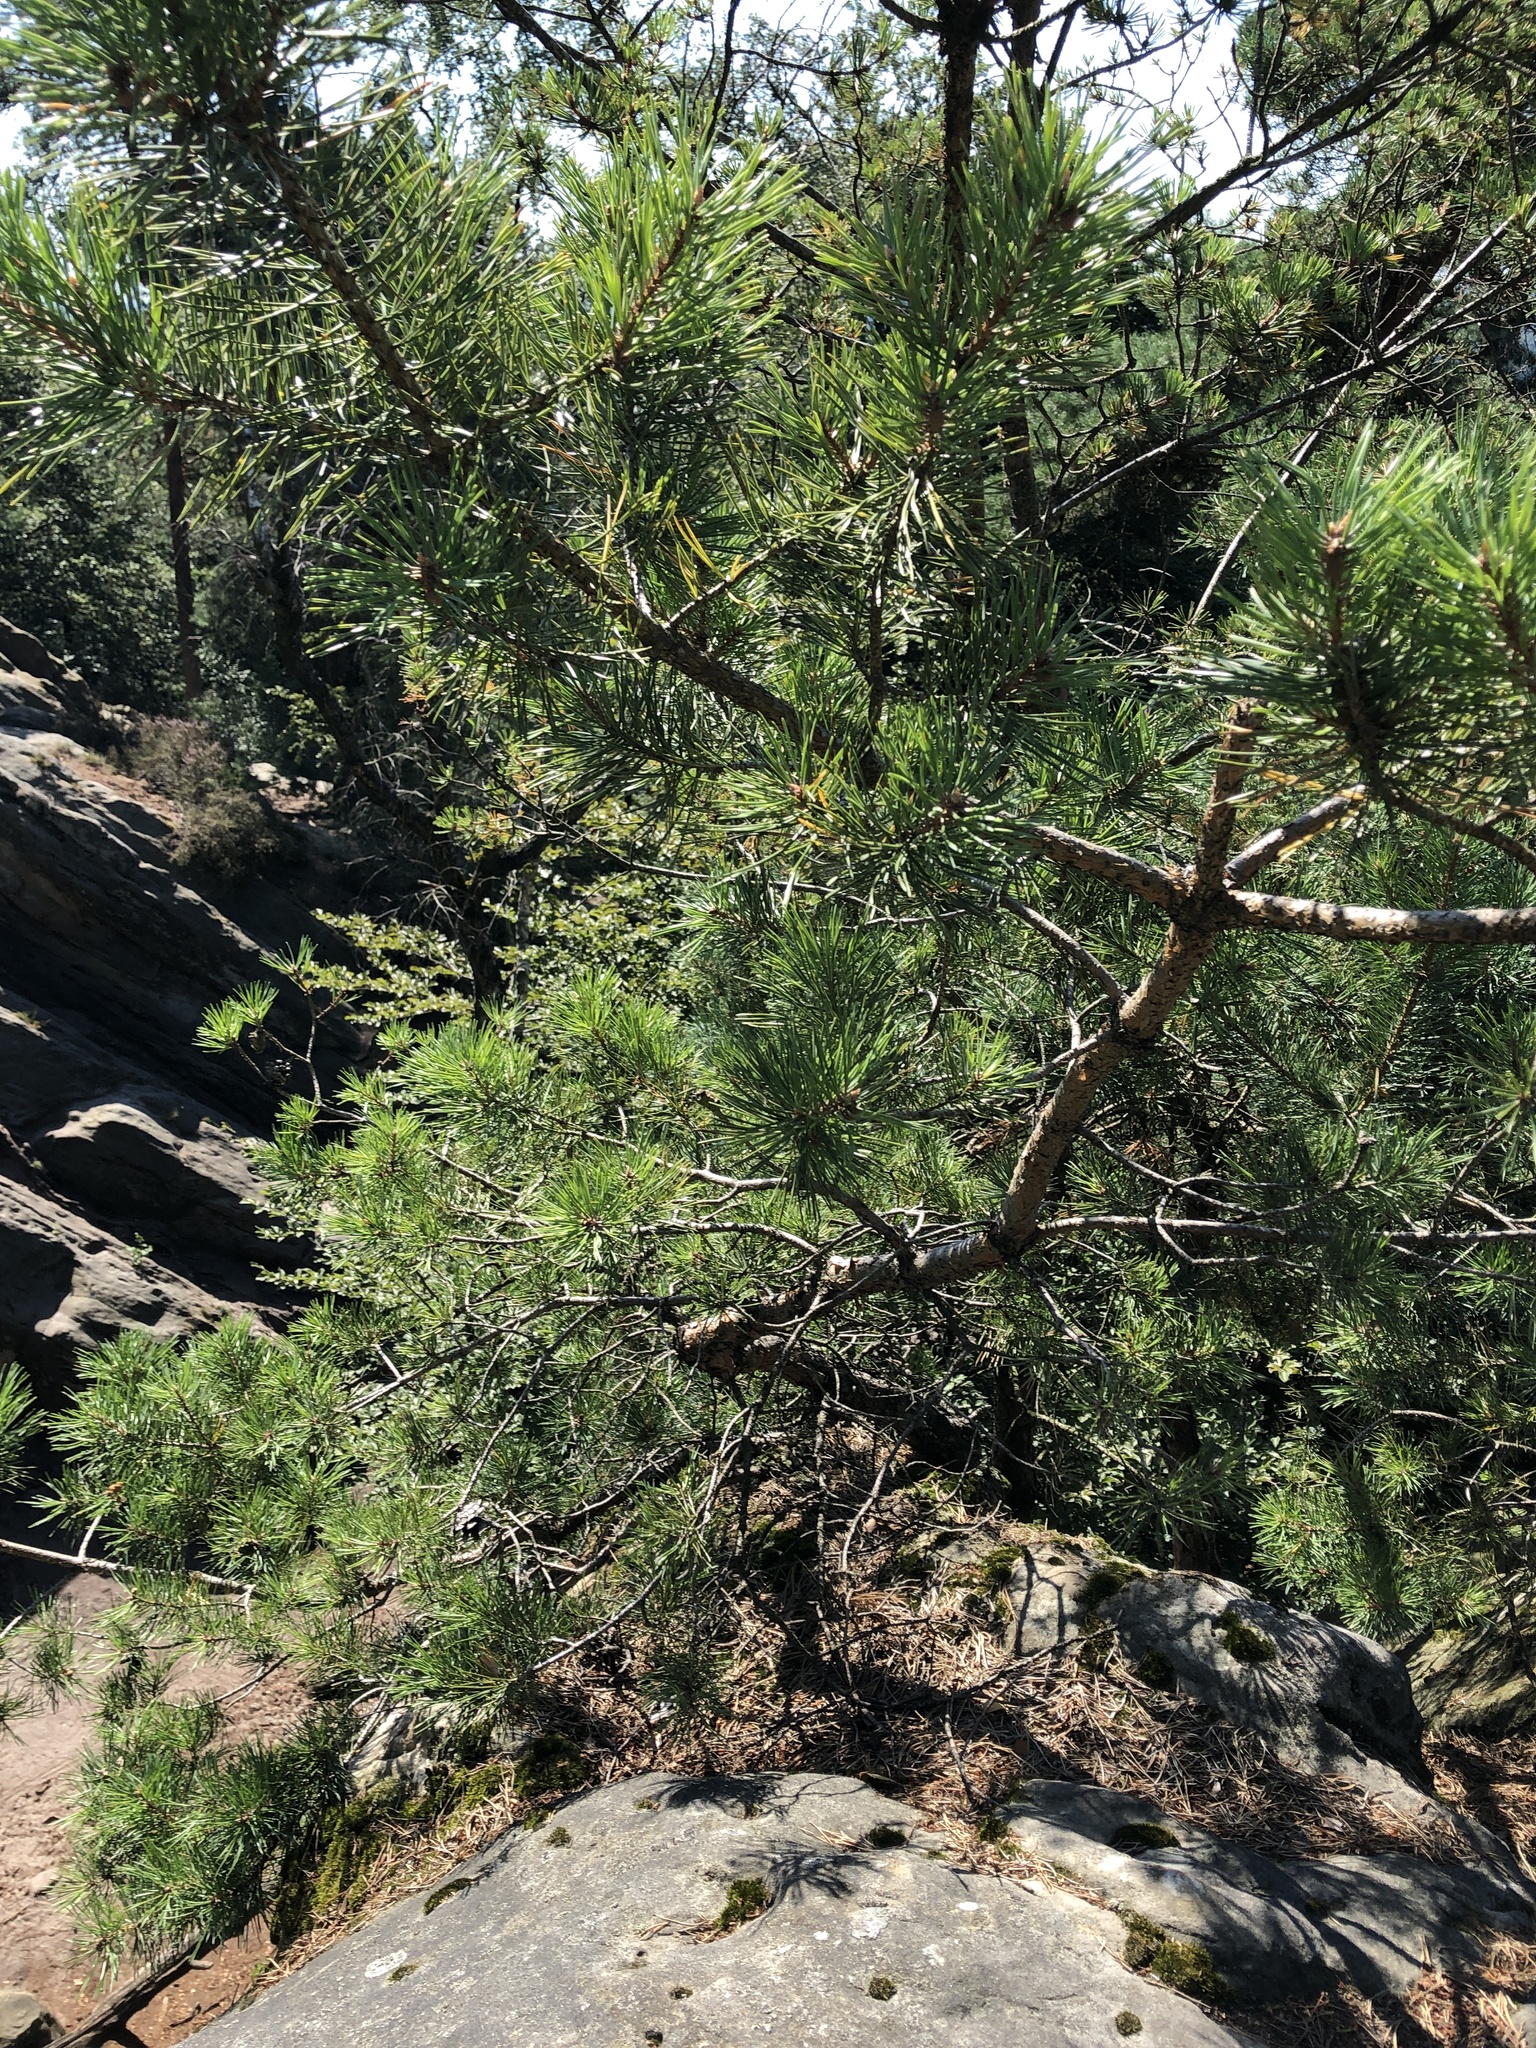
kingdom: Plantae
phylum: Tracheophyta
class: Pinopsida
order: Pinales
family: Pinaceae
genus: Pinus
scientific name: Pinus sylvestris
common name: Scots pine
